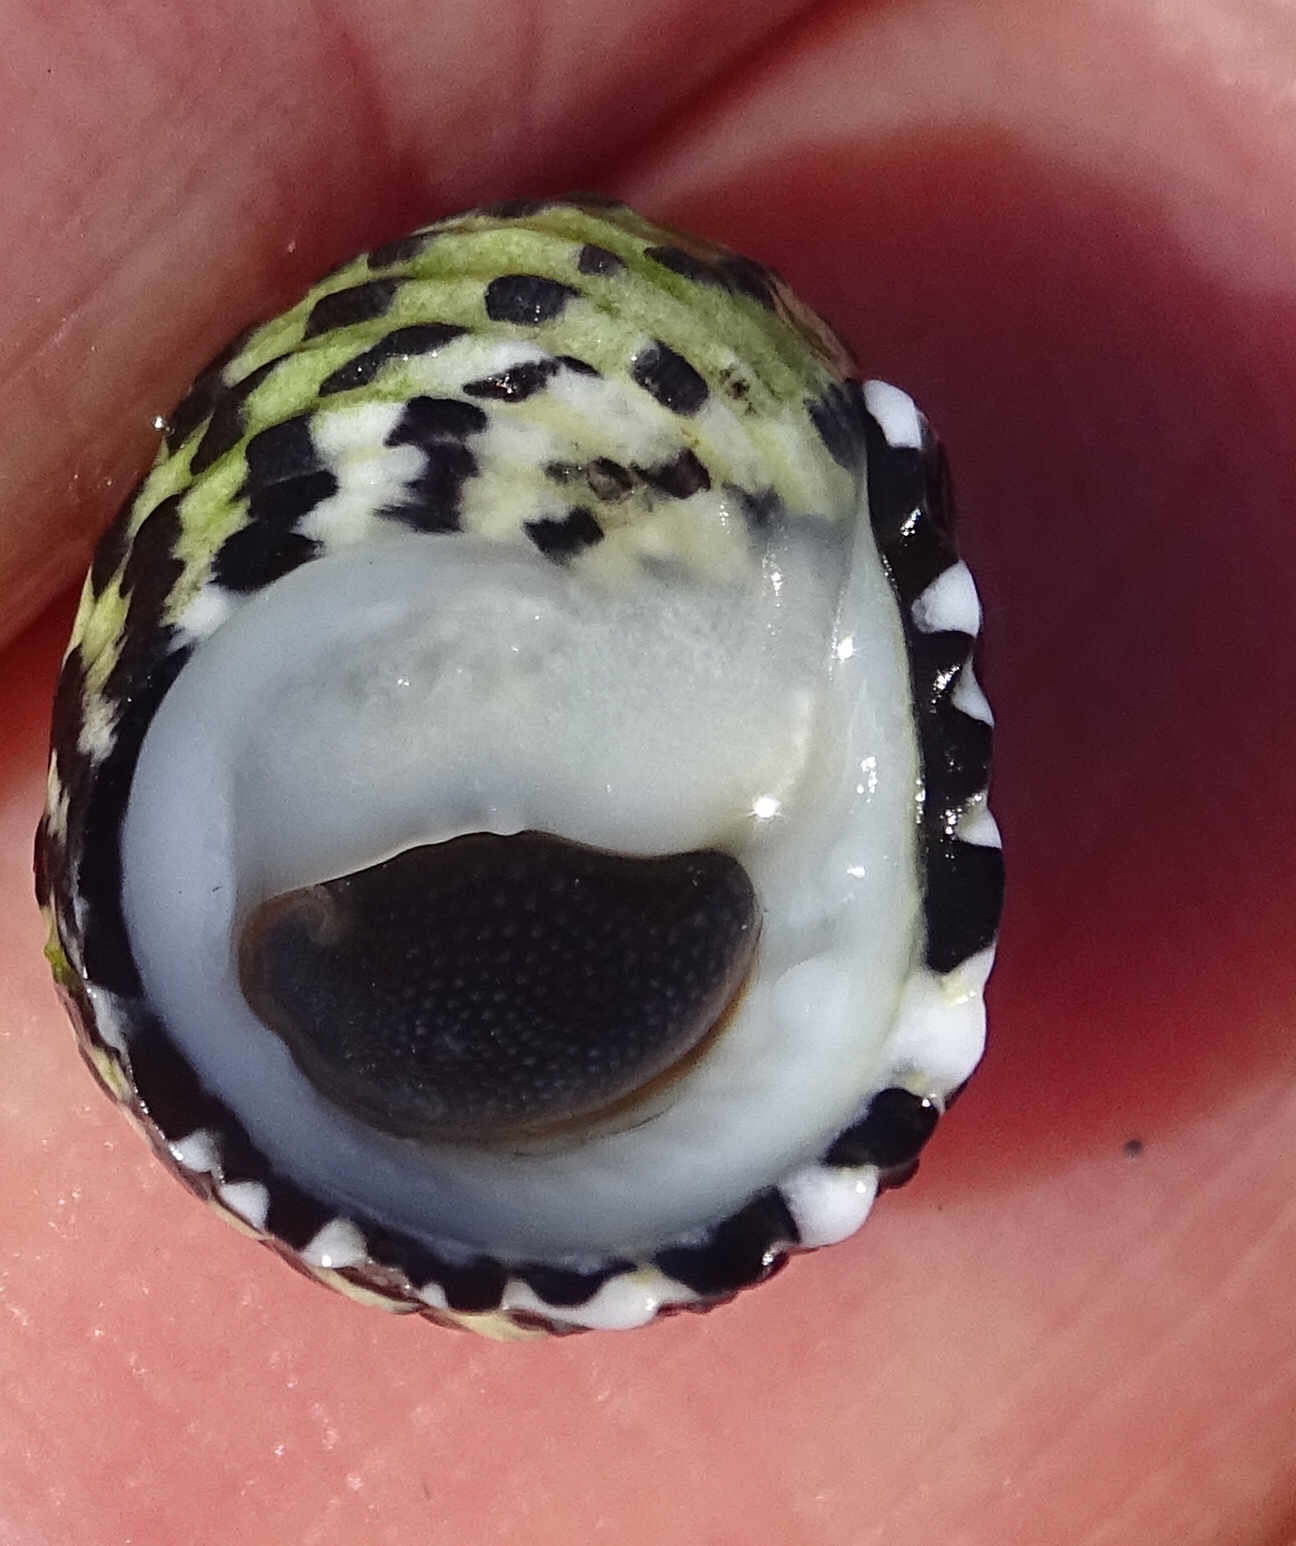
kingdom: Animalia
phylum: Mollusca
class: Gastropoda
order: Cycloneritida
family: Neritidae
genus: Nerita
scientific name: Nerita tessellata
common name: Checkered nerite
